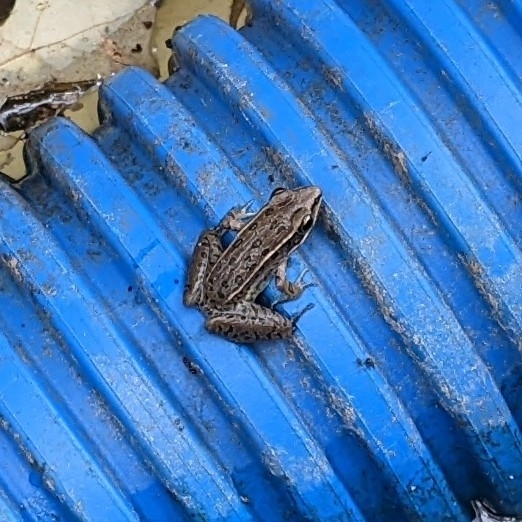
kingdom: Animalia
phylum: Chordata
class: Amphibia
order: Anura
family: Ranidae
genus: Lithobates
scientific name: Lithobates sphenocephalus
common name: Southern leopard frog
